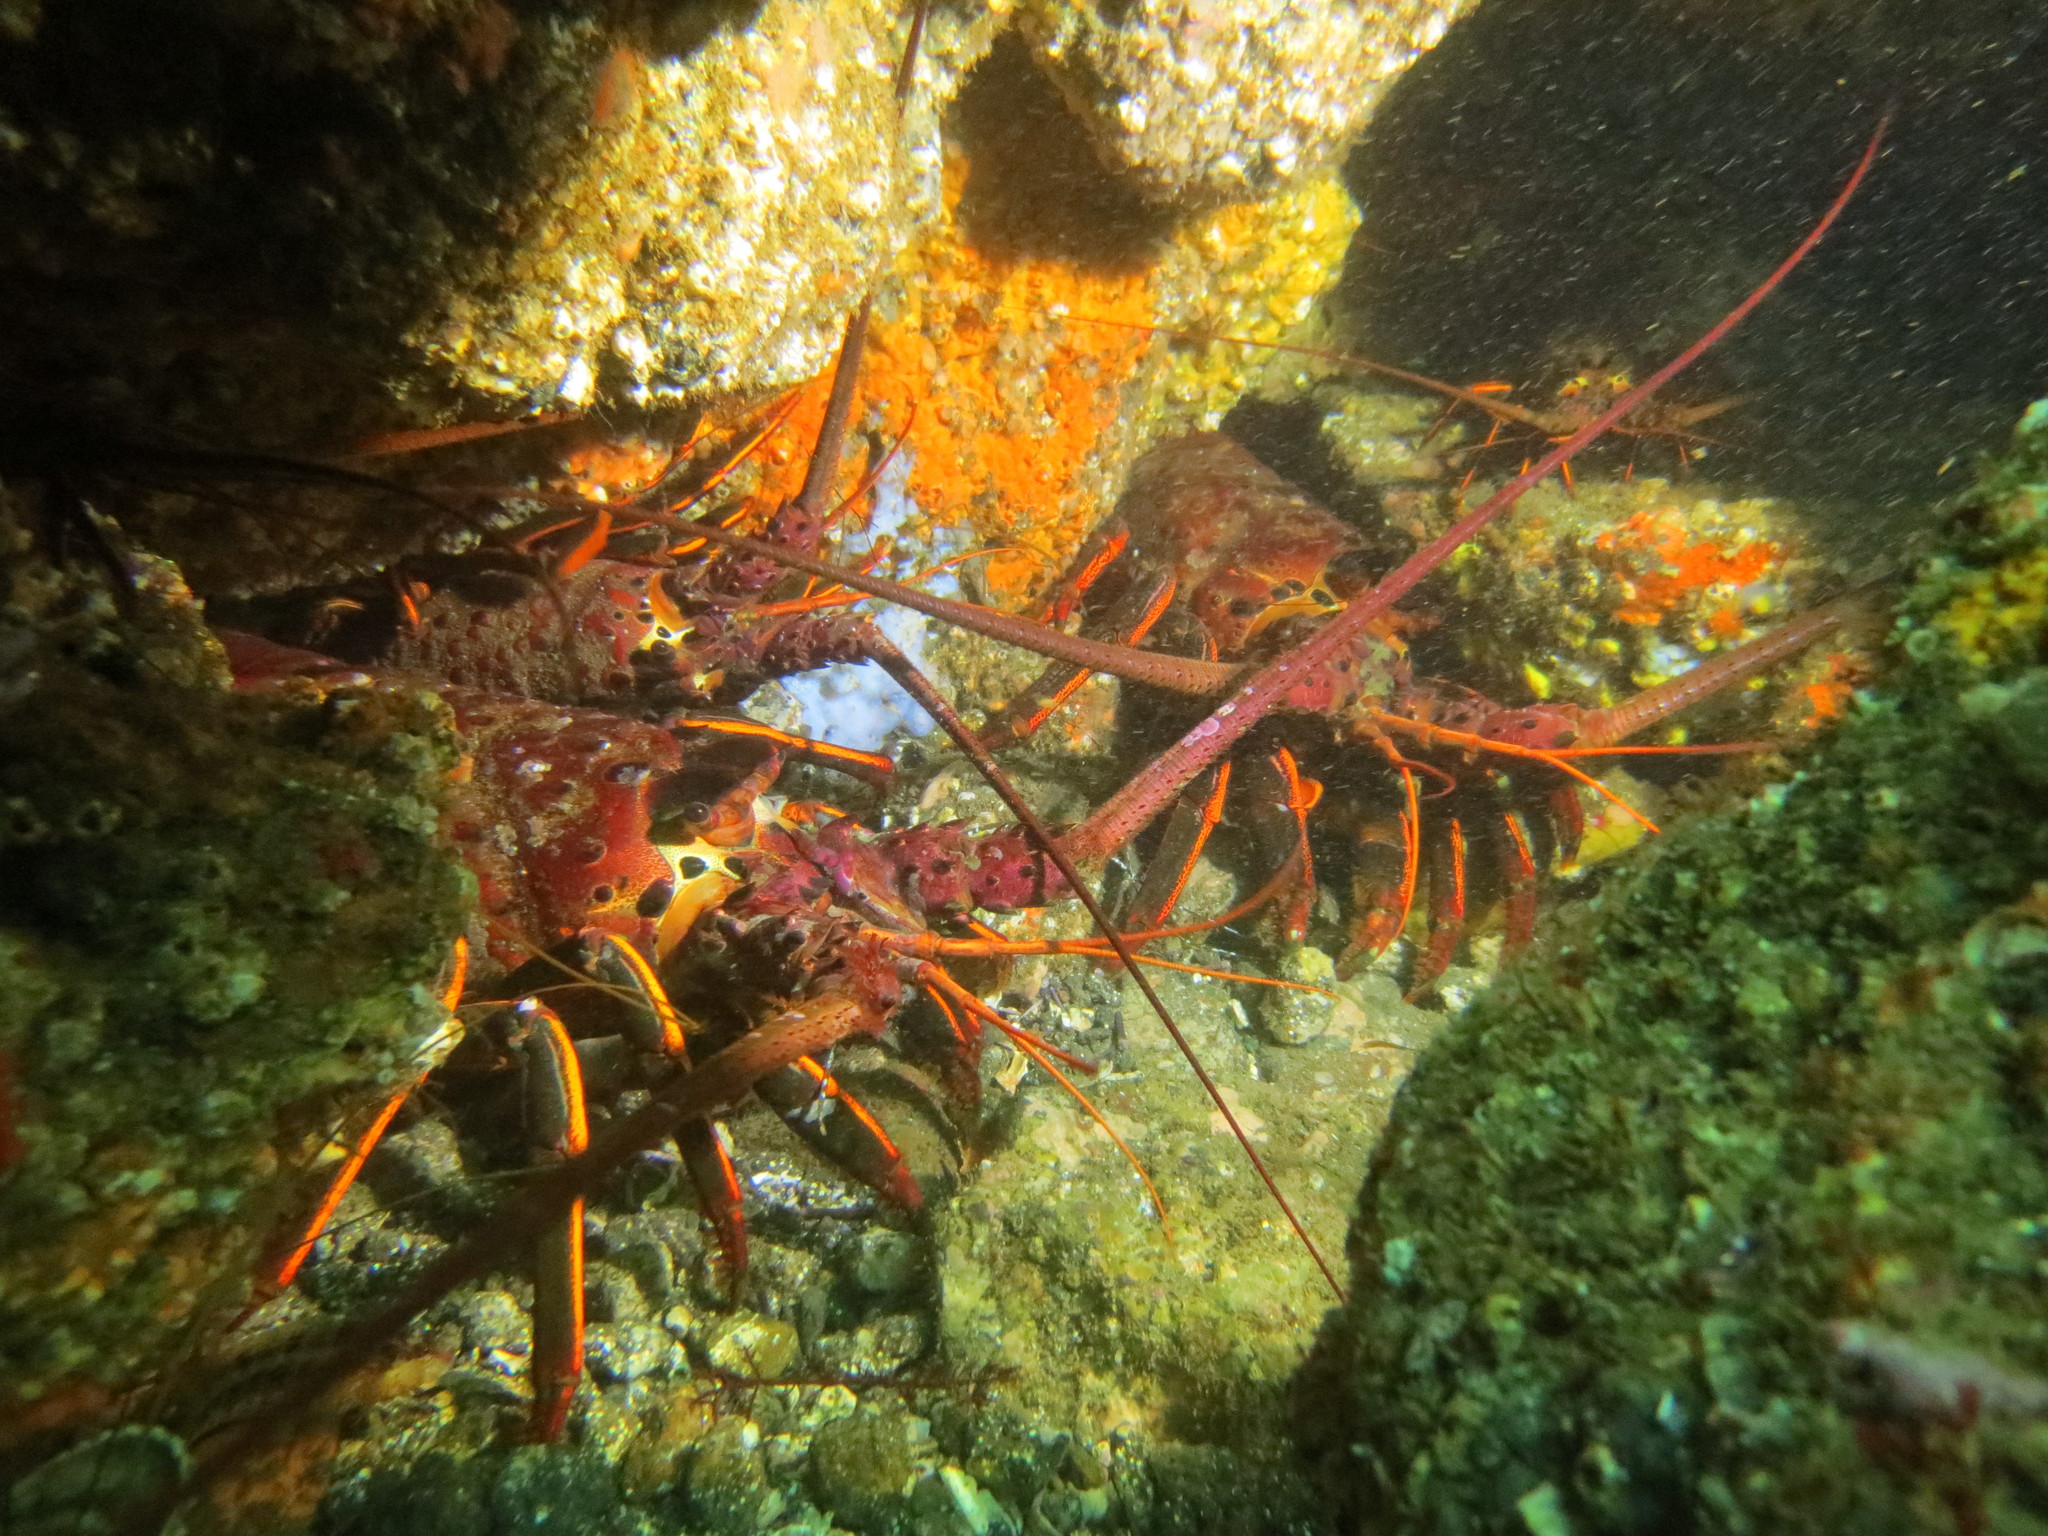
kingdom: Animalia
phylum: Arthropoda
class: Malacostraca
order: Decapoda
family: Palinuridae
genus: Panulirus
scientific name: Panulirus interruptus
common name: California spiny lobster
